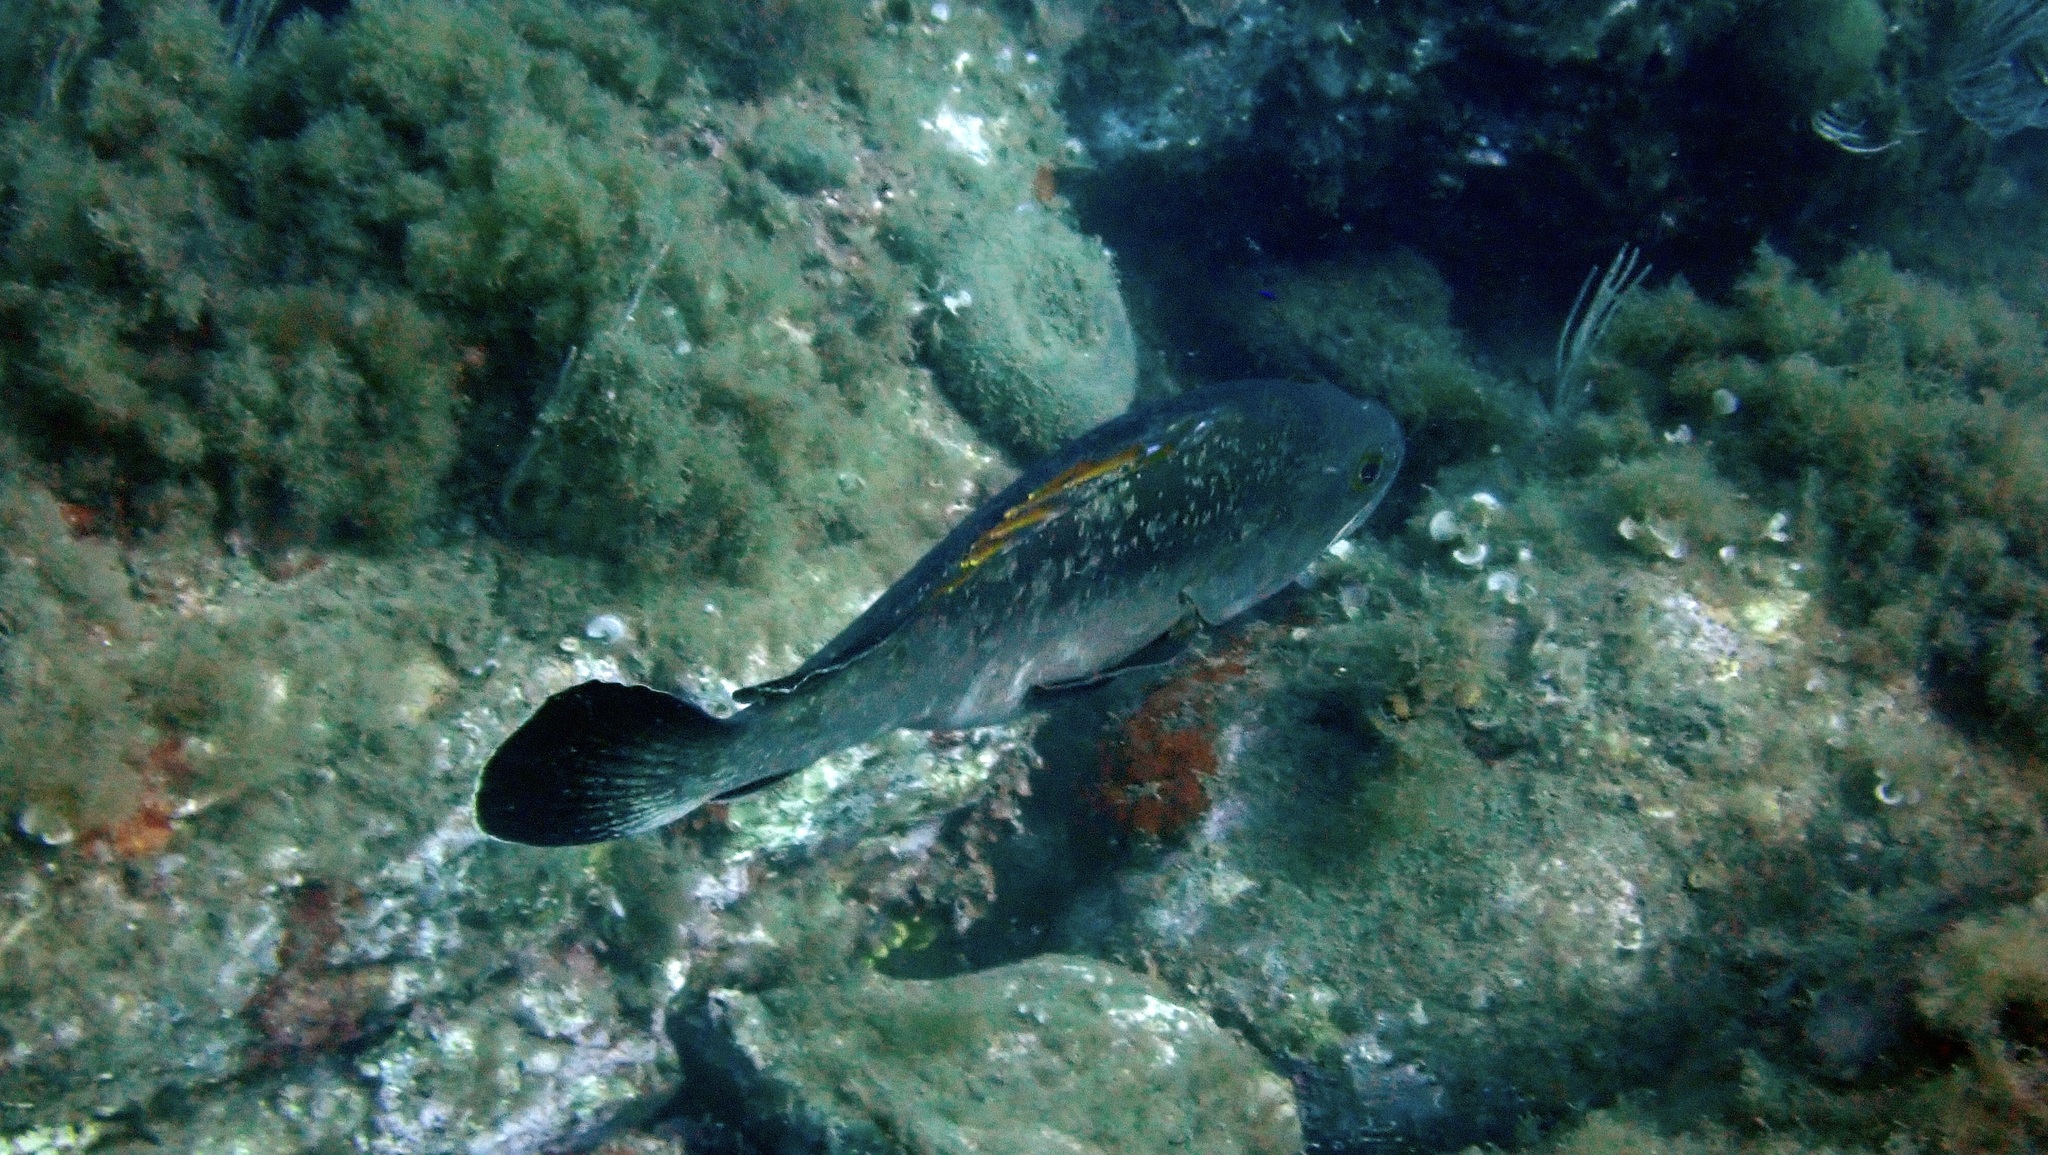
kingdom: Animalia
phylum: Chordata
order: Perciformes
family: Serranidae
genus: Epinephelus
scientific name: Epinephelus marginatus
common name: Dusky grouper
